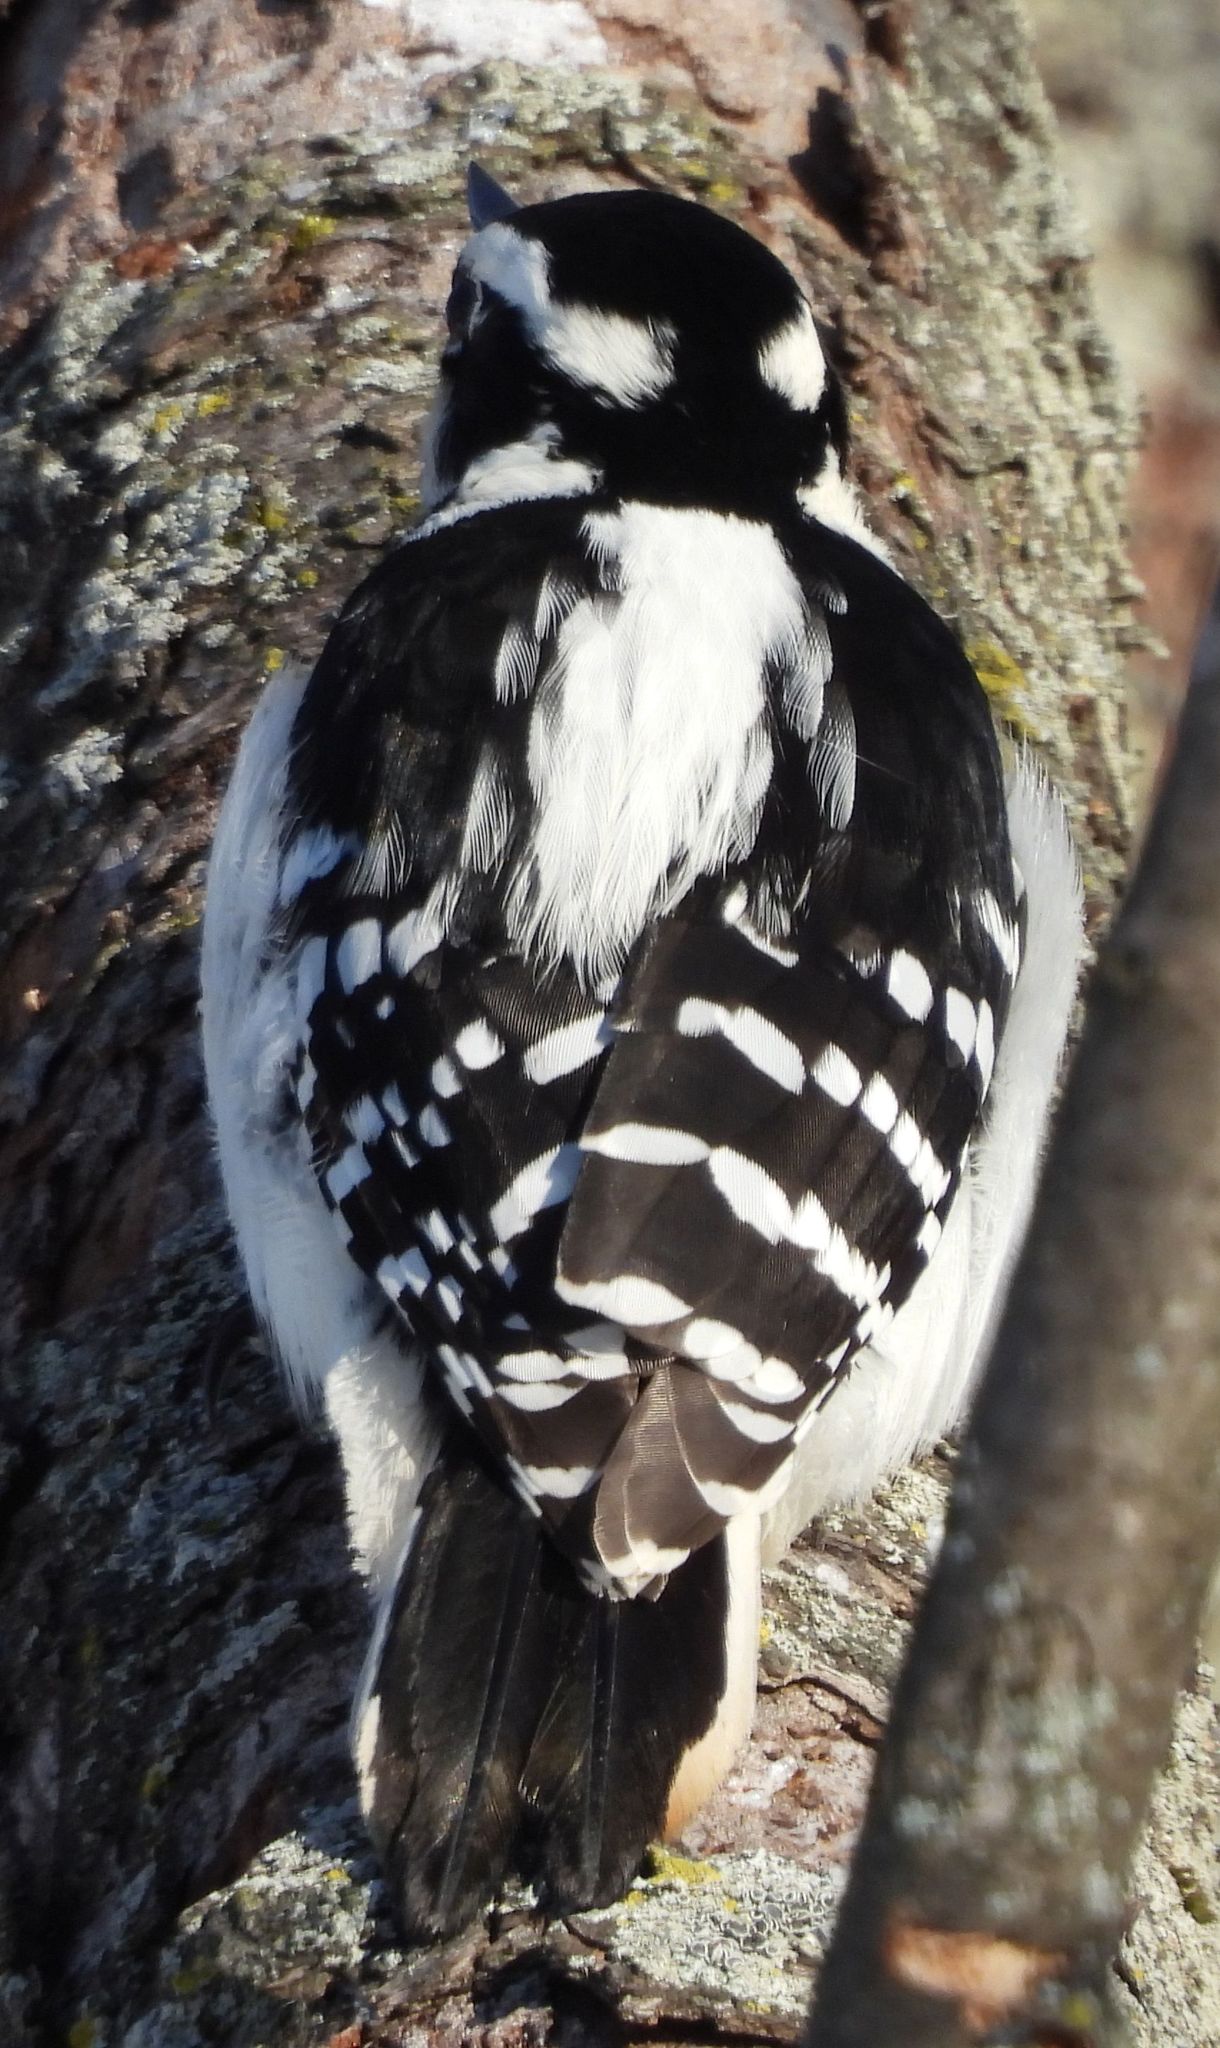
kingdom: Animalia
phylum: Chordata
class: Aves
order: Piciformes
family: Picidae
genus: Leuconotopicus
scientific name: Leuconotopicus villosus
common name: Hairy woodpecker
